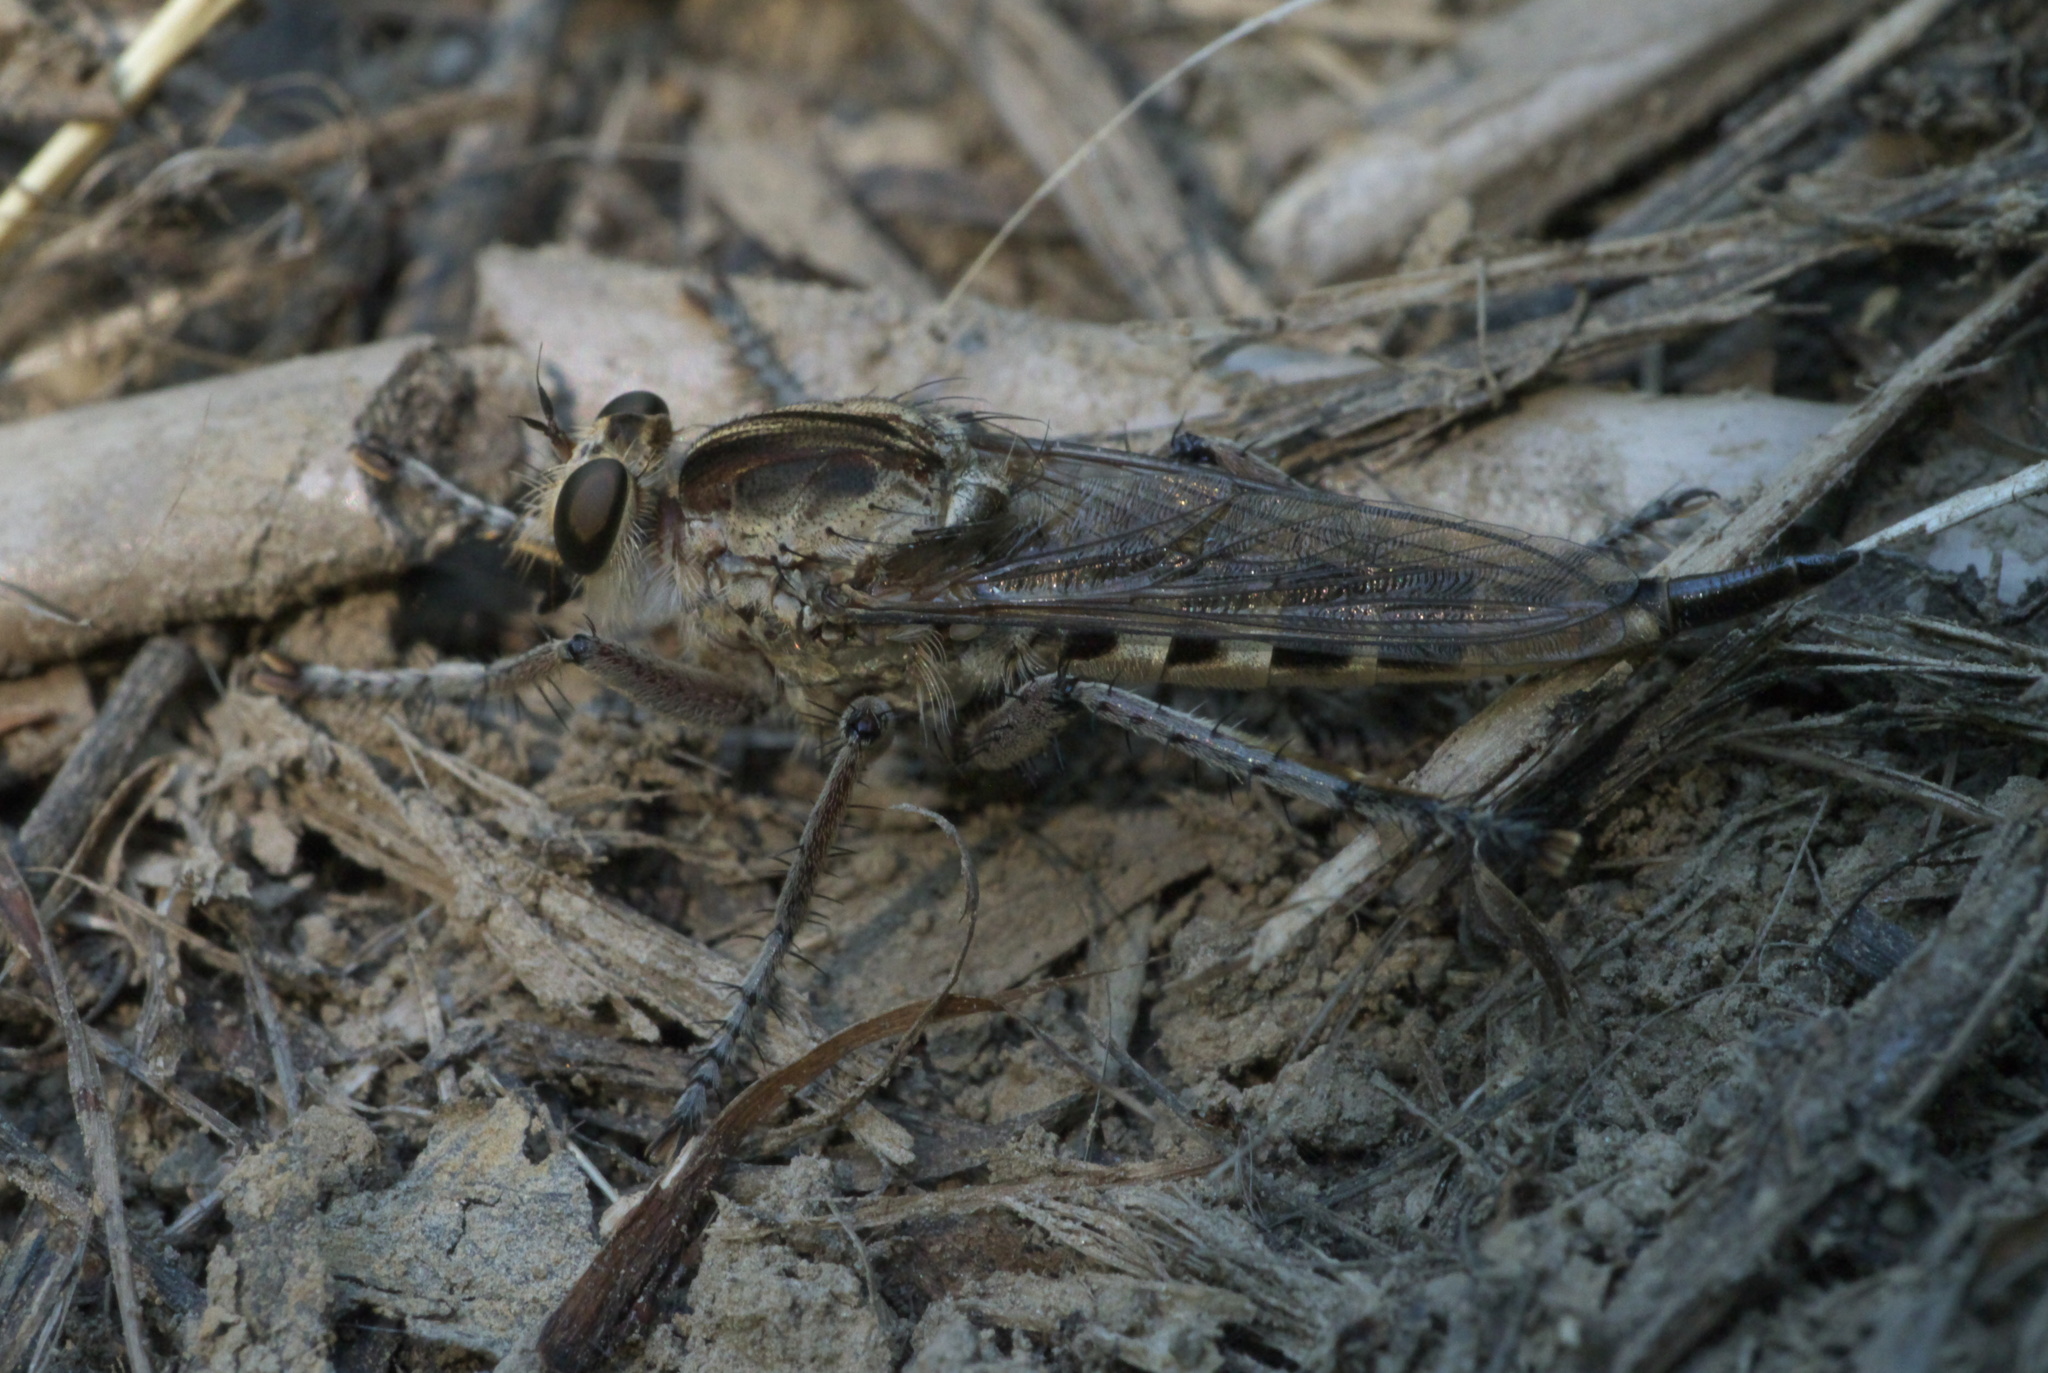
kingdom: Animalia
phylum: Arthropoda
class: Insecta
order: Diptera
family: Asilidae
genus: Triorla
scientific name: Triorla interrupta
